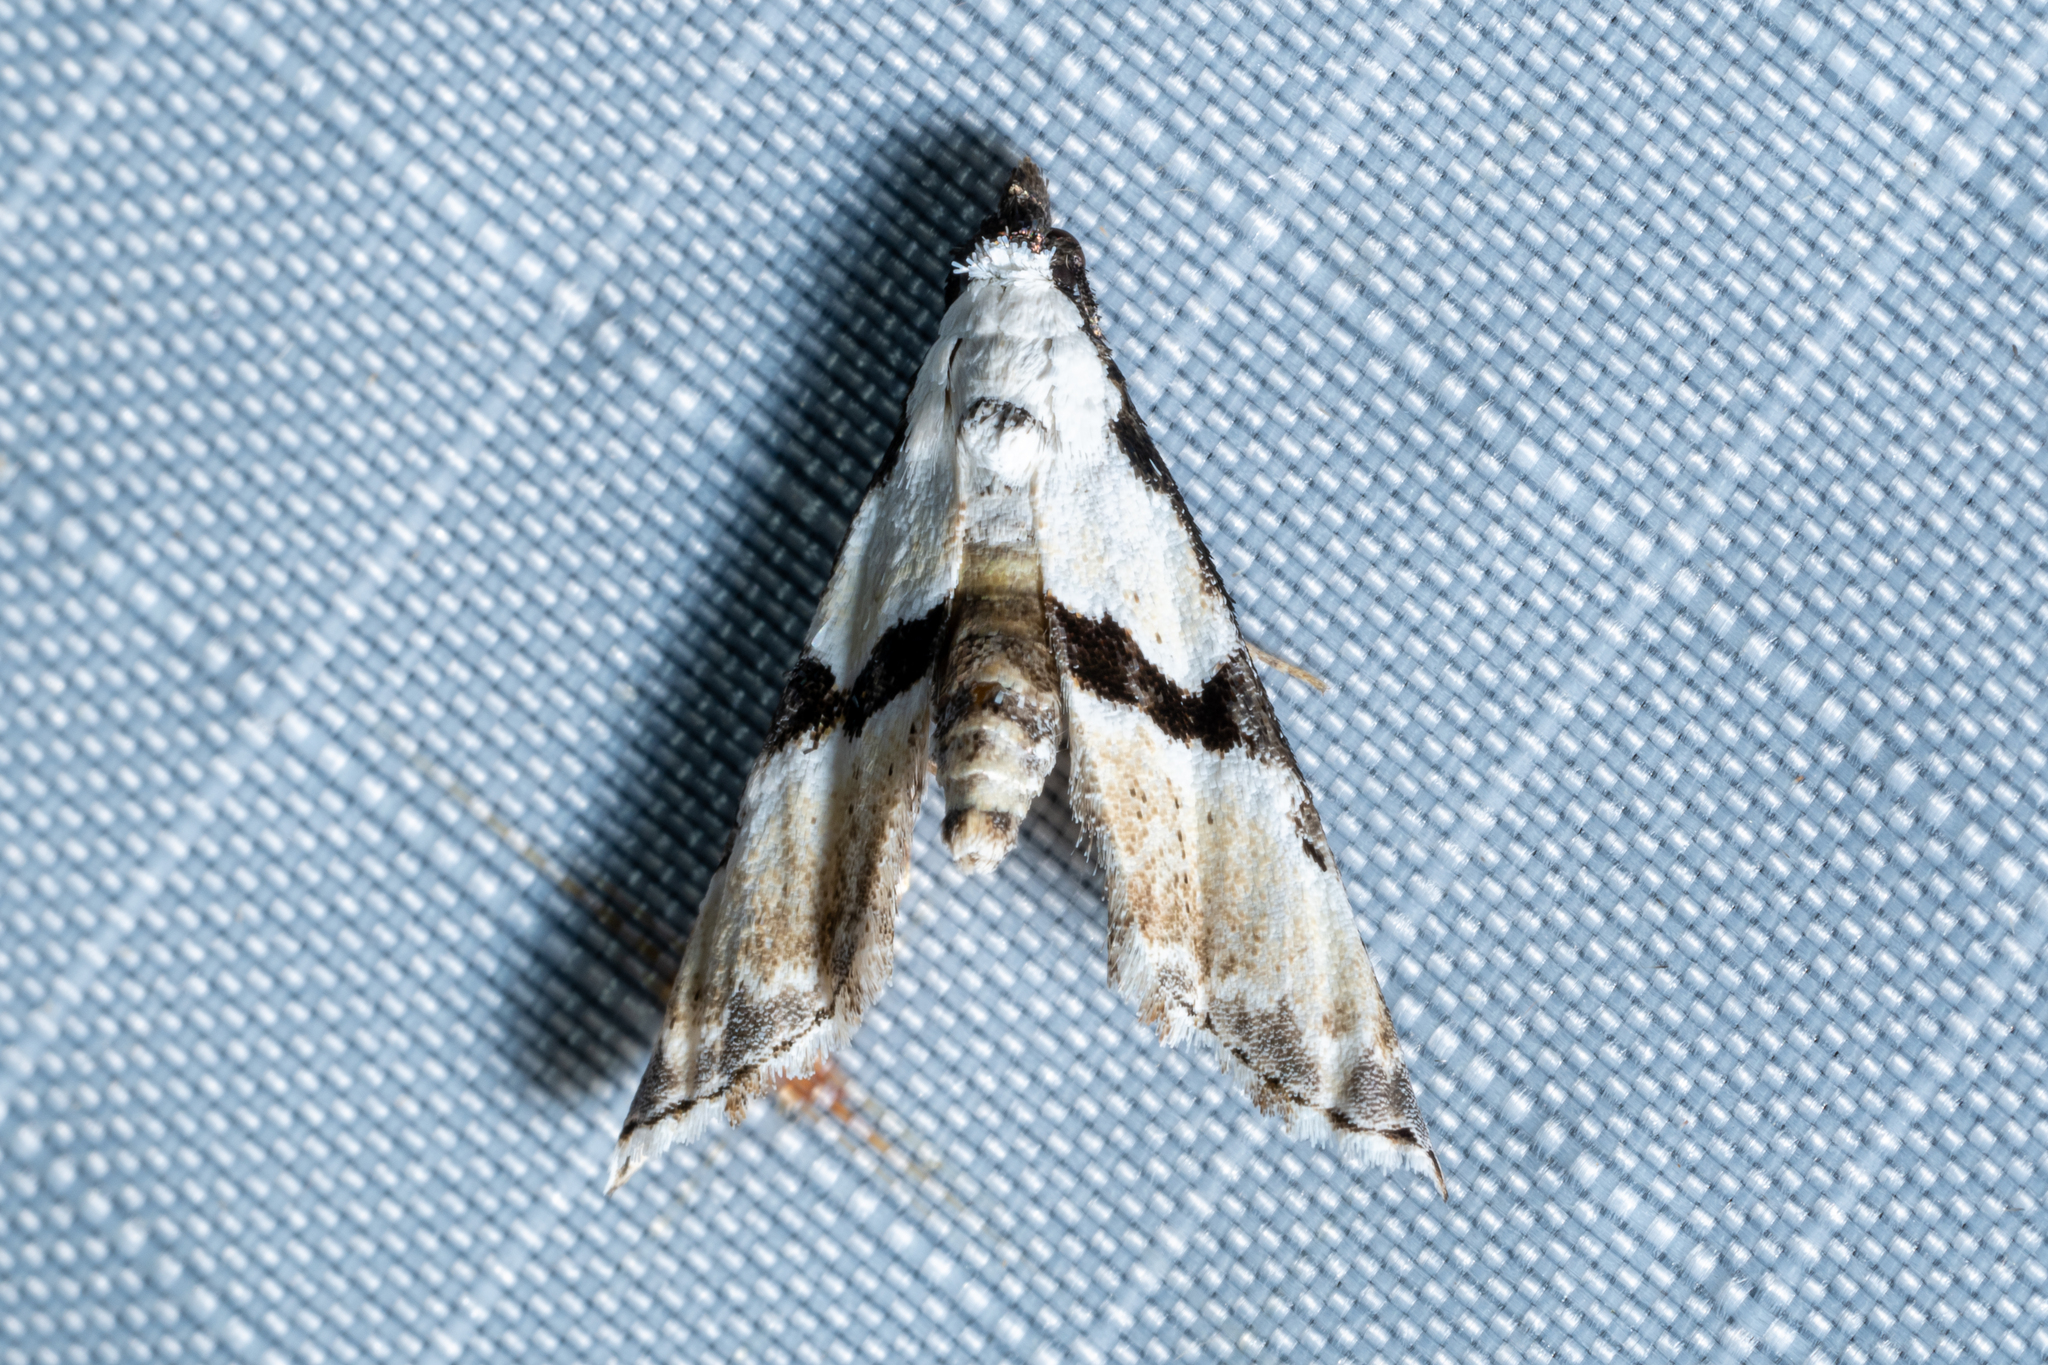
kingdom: Animalia
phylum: Arthropoda
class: Insecta
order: Lepidoptera
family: Noctuidae
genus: Nigetia
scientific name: Nigetia formosalis
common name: Thin-winged owlet
